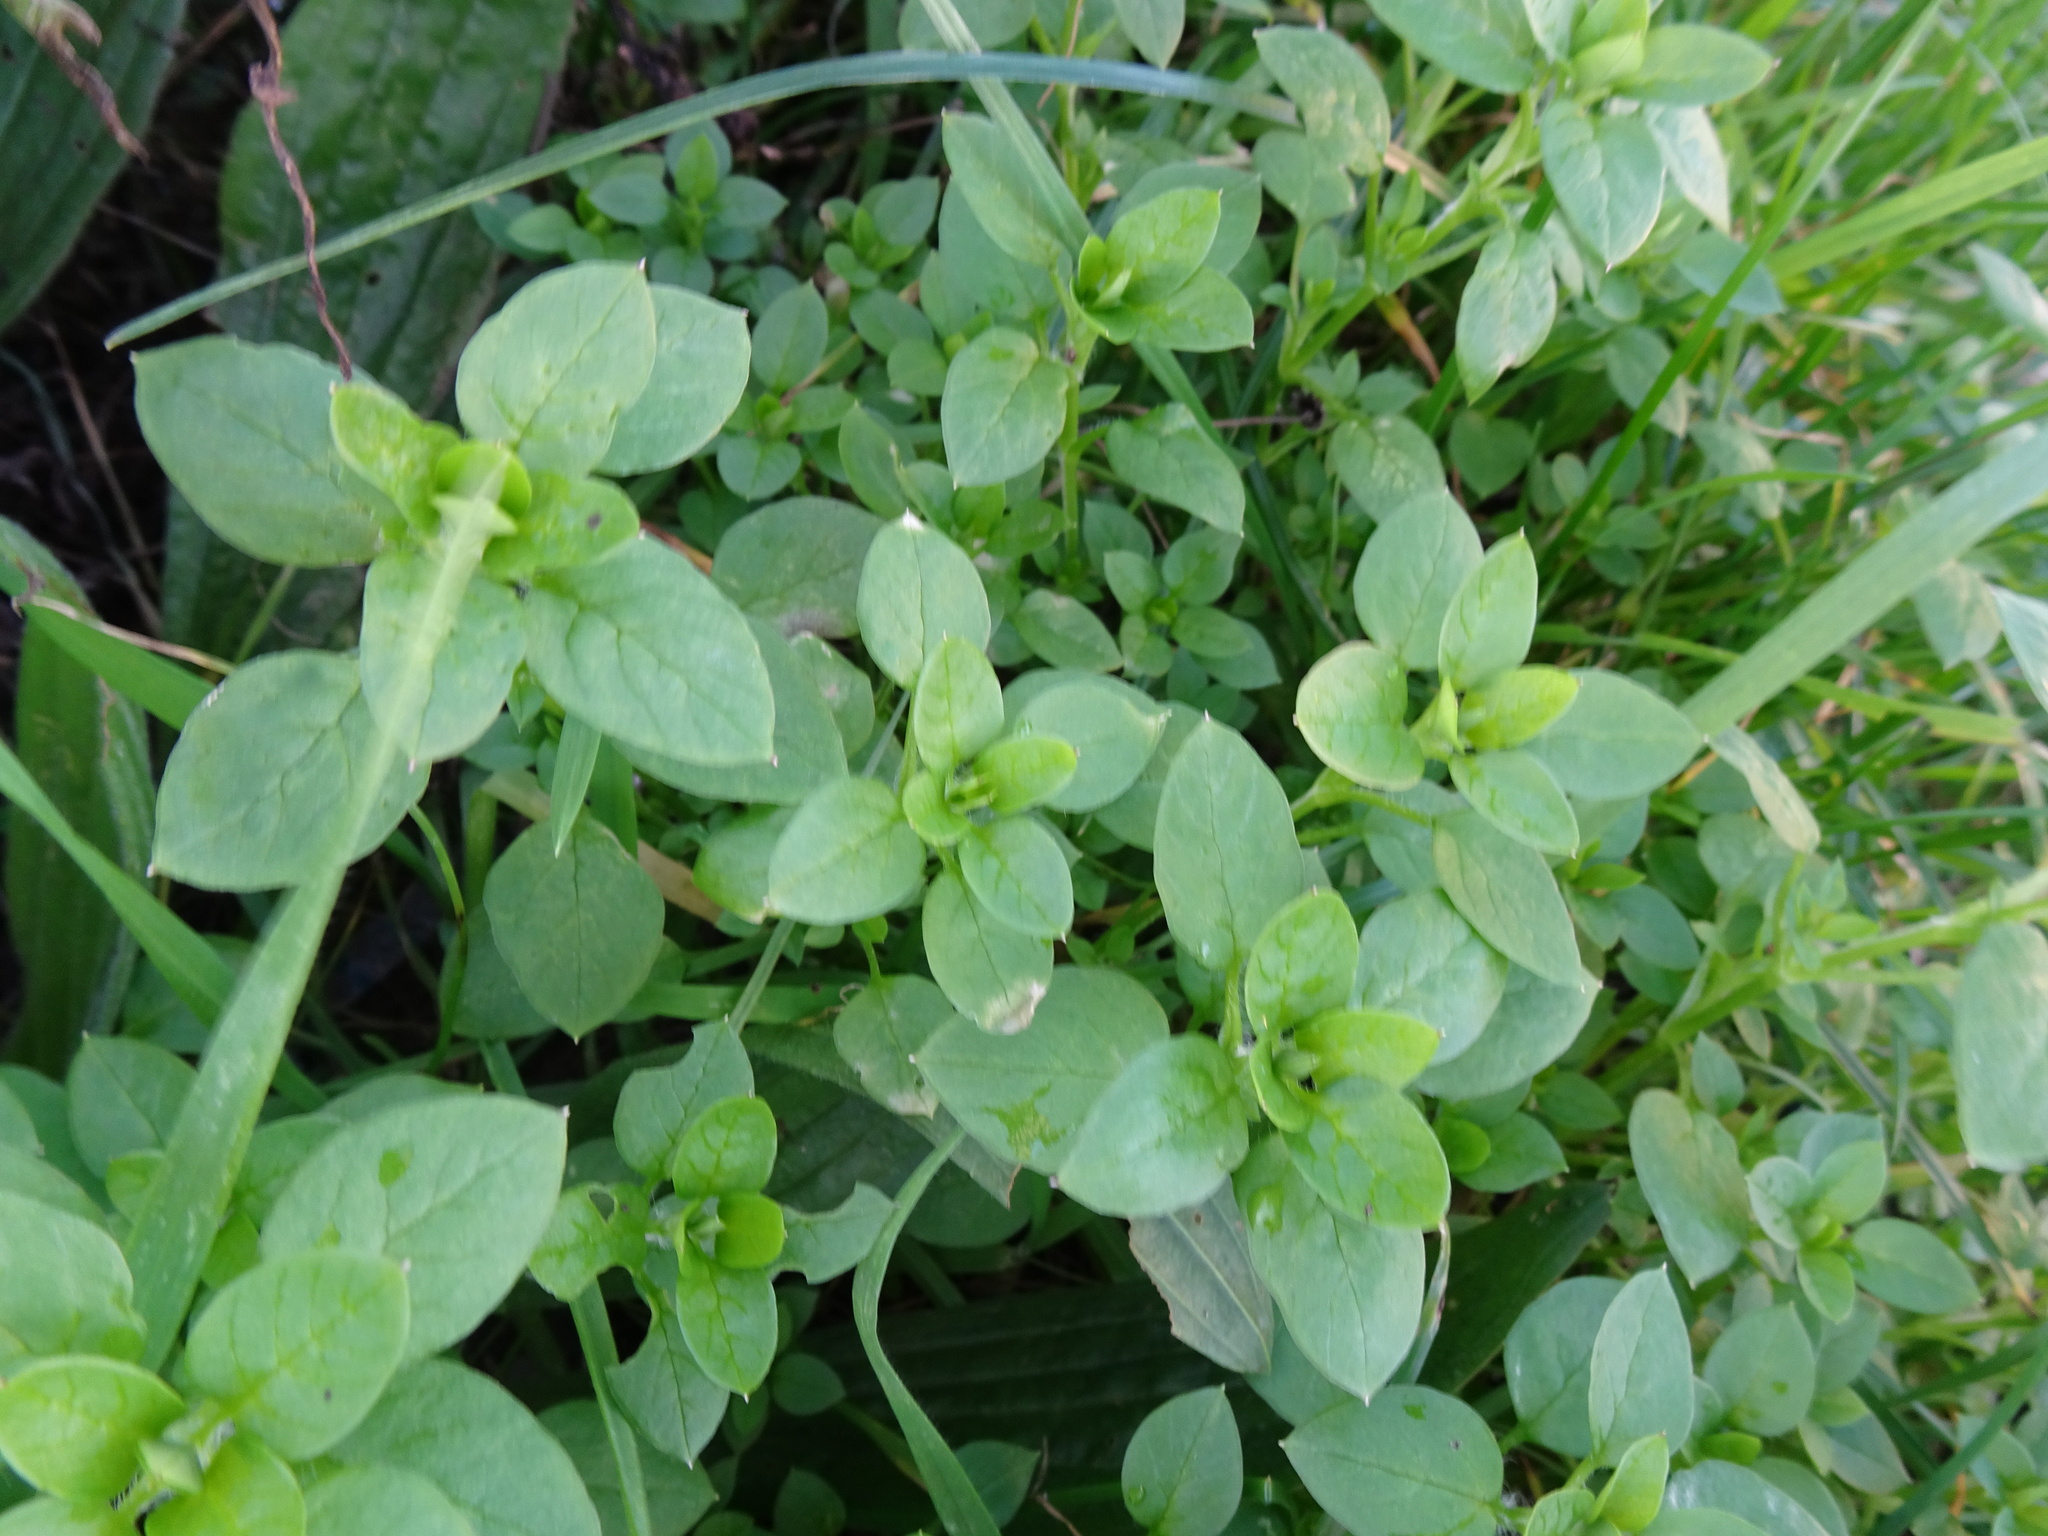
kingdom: Plantae
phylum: Tracheophyta
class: Magnoliopsida
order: Caryophyllales
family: Caryophyllaceae
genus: Stellaria
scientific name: Stellaria media
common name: Common chickweed
